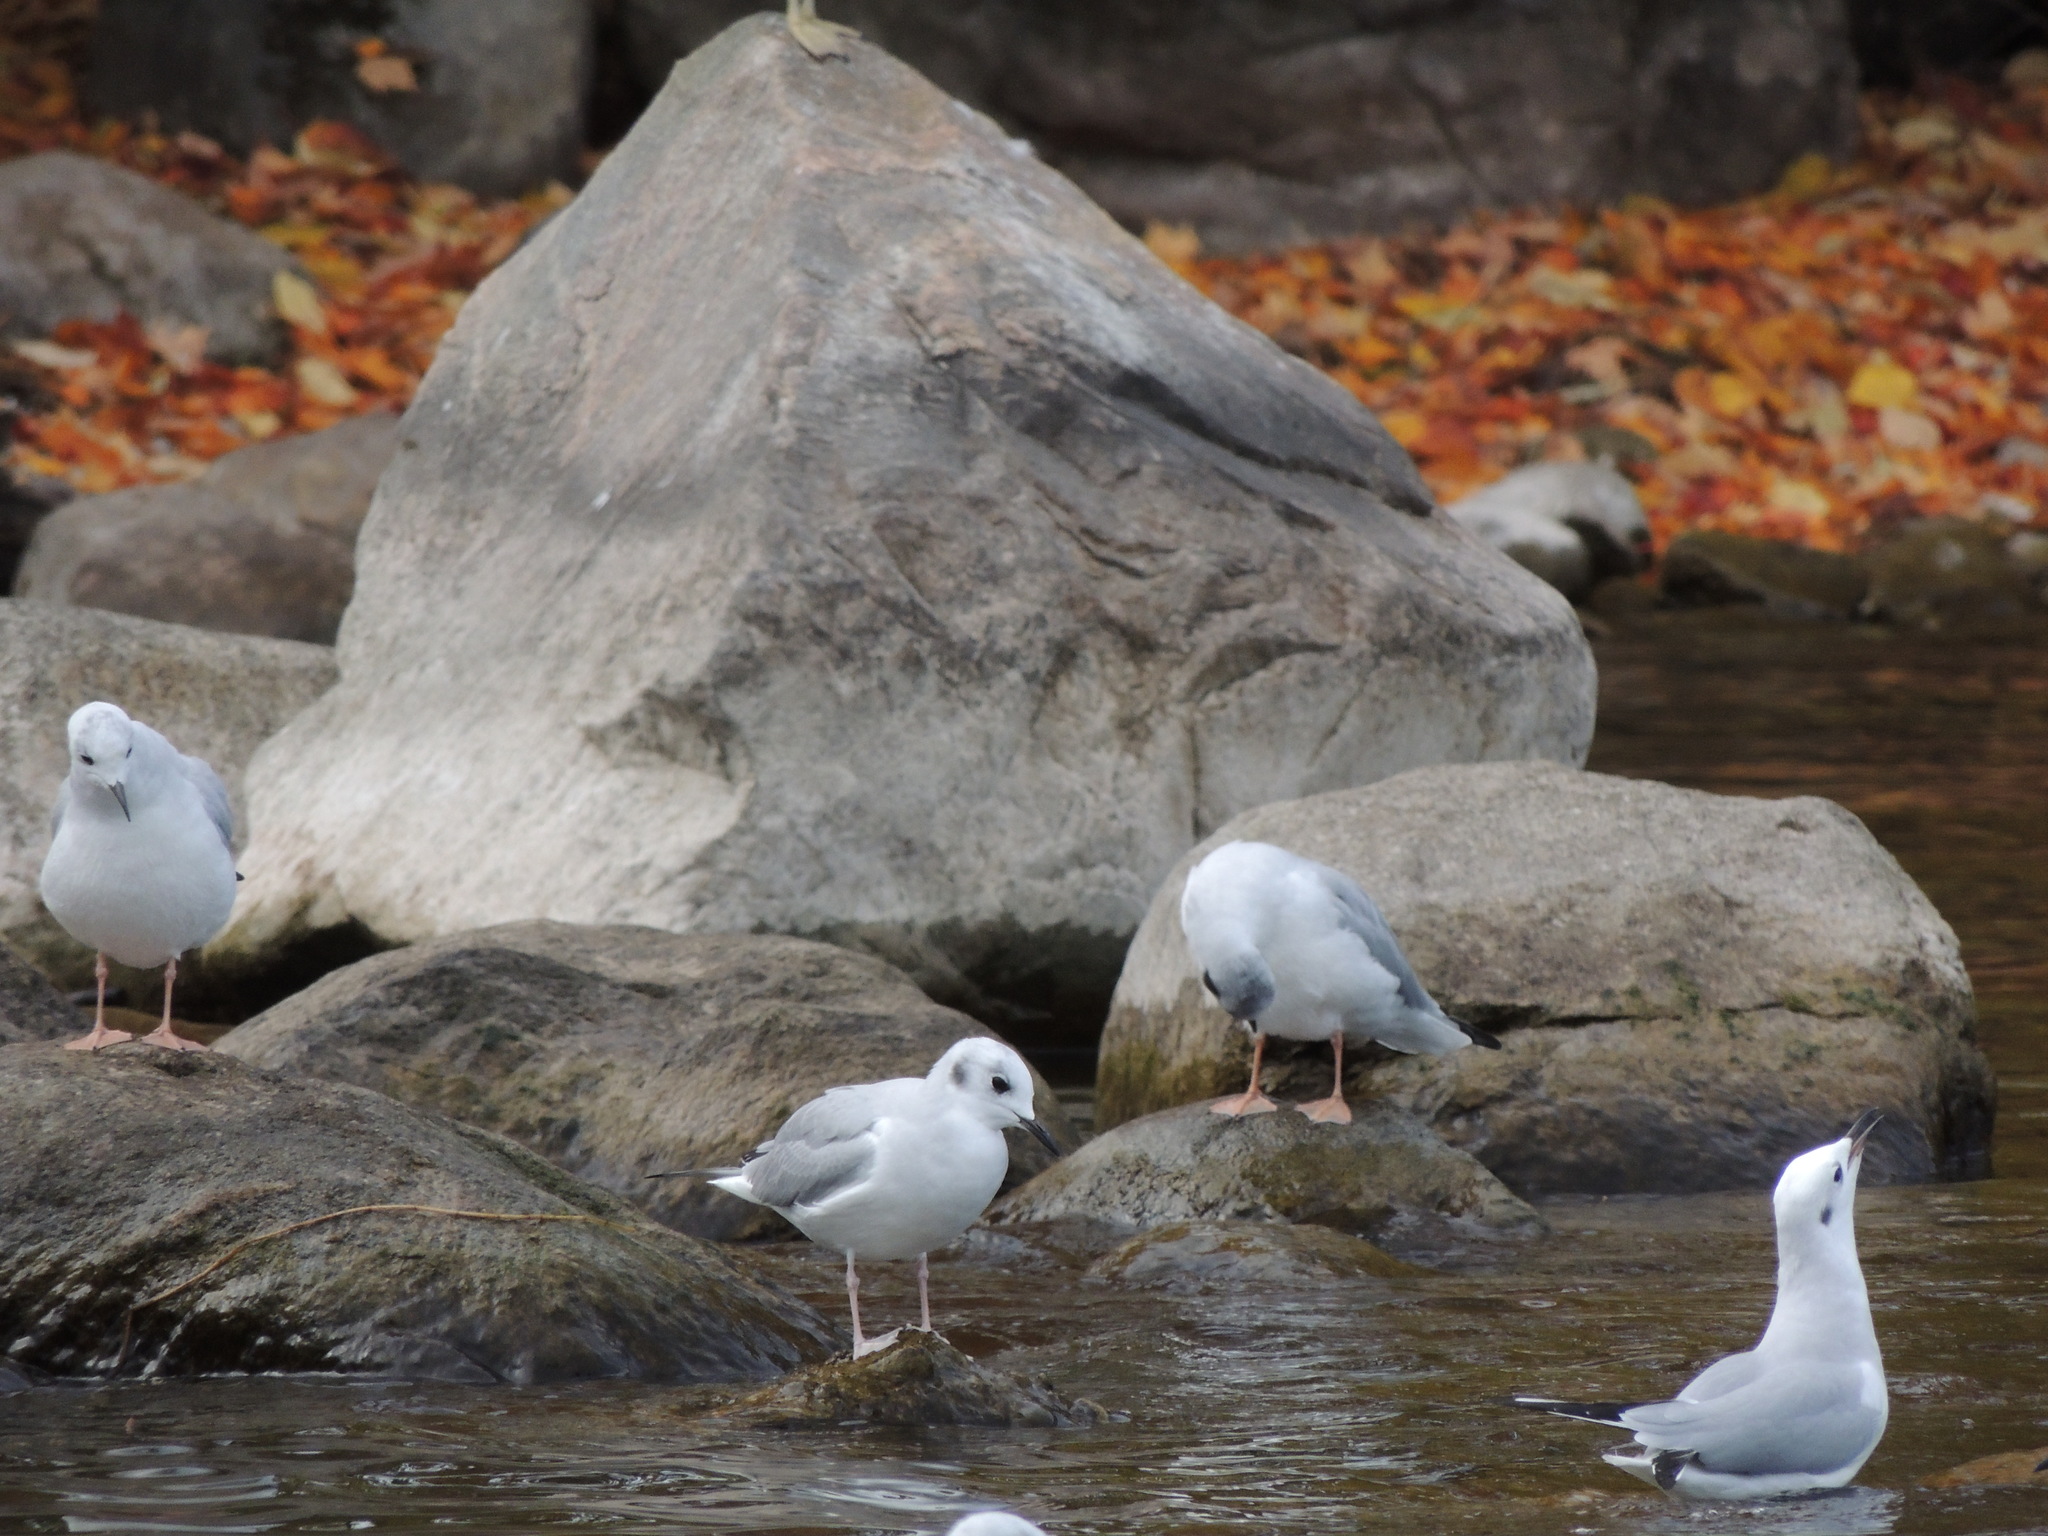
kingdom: Animalia
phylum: Chordata
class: Aves
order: Charadriiformes
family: Laridae
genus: Chroicocephalus
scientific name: Chroicocephalus philadelphia
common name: Bonaparte's gull
